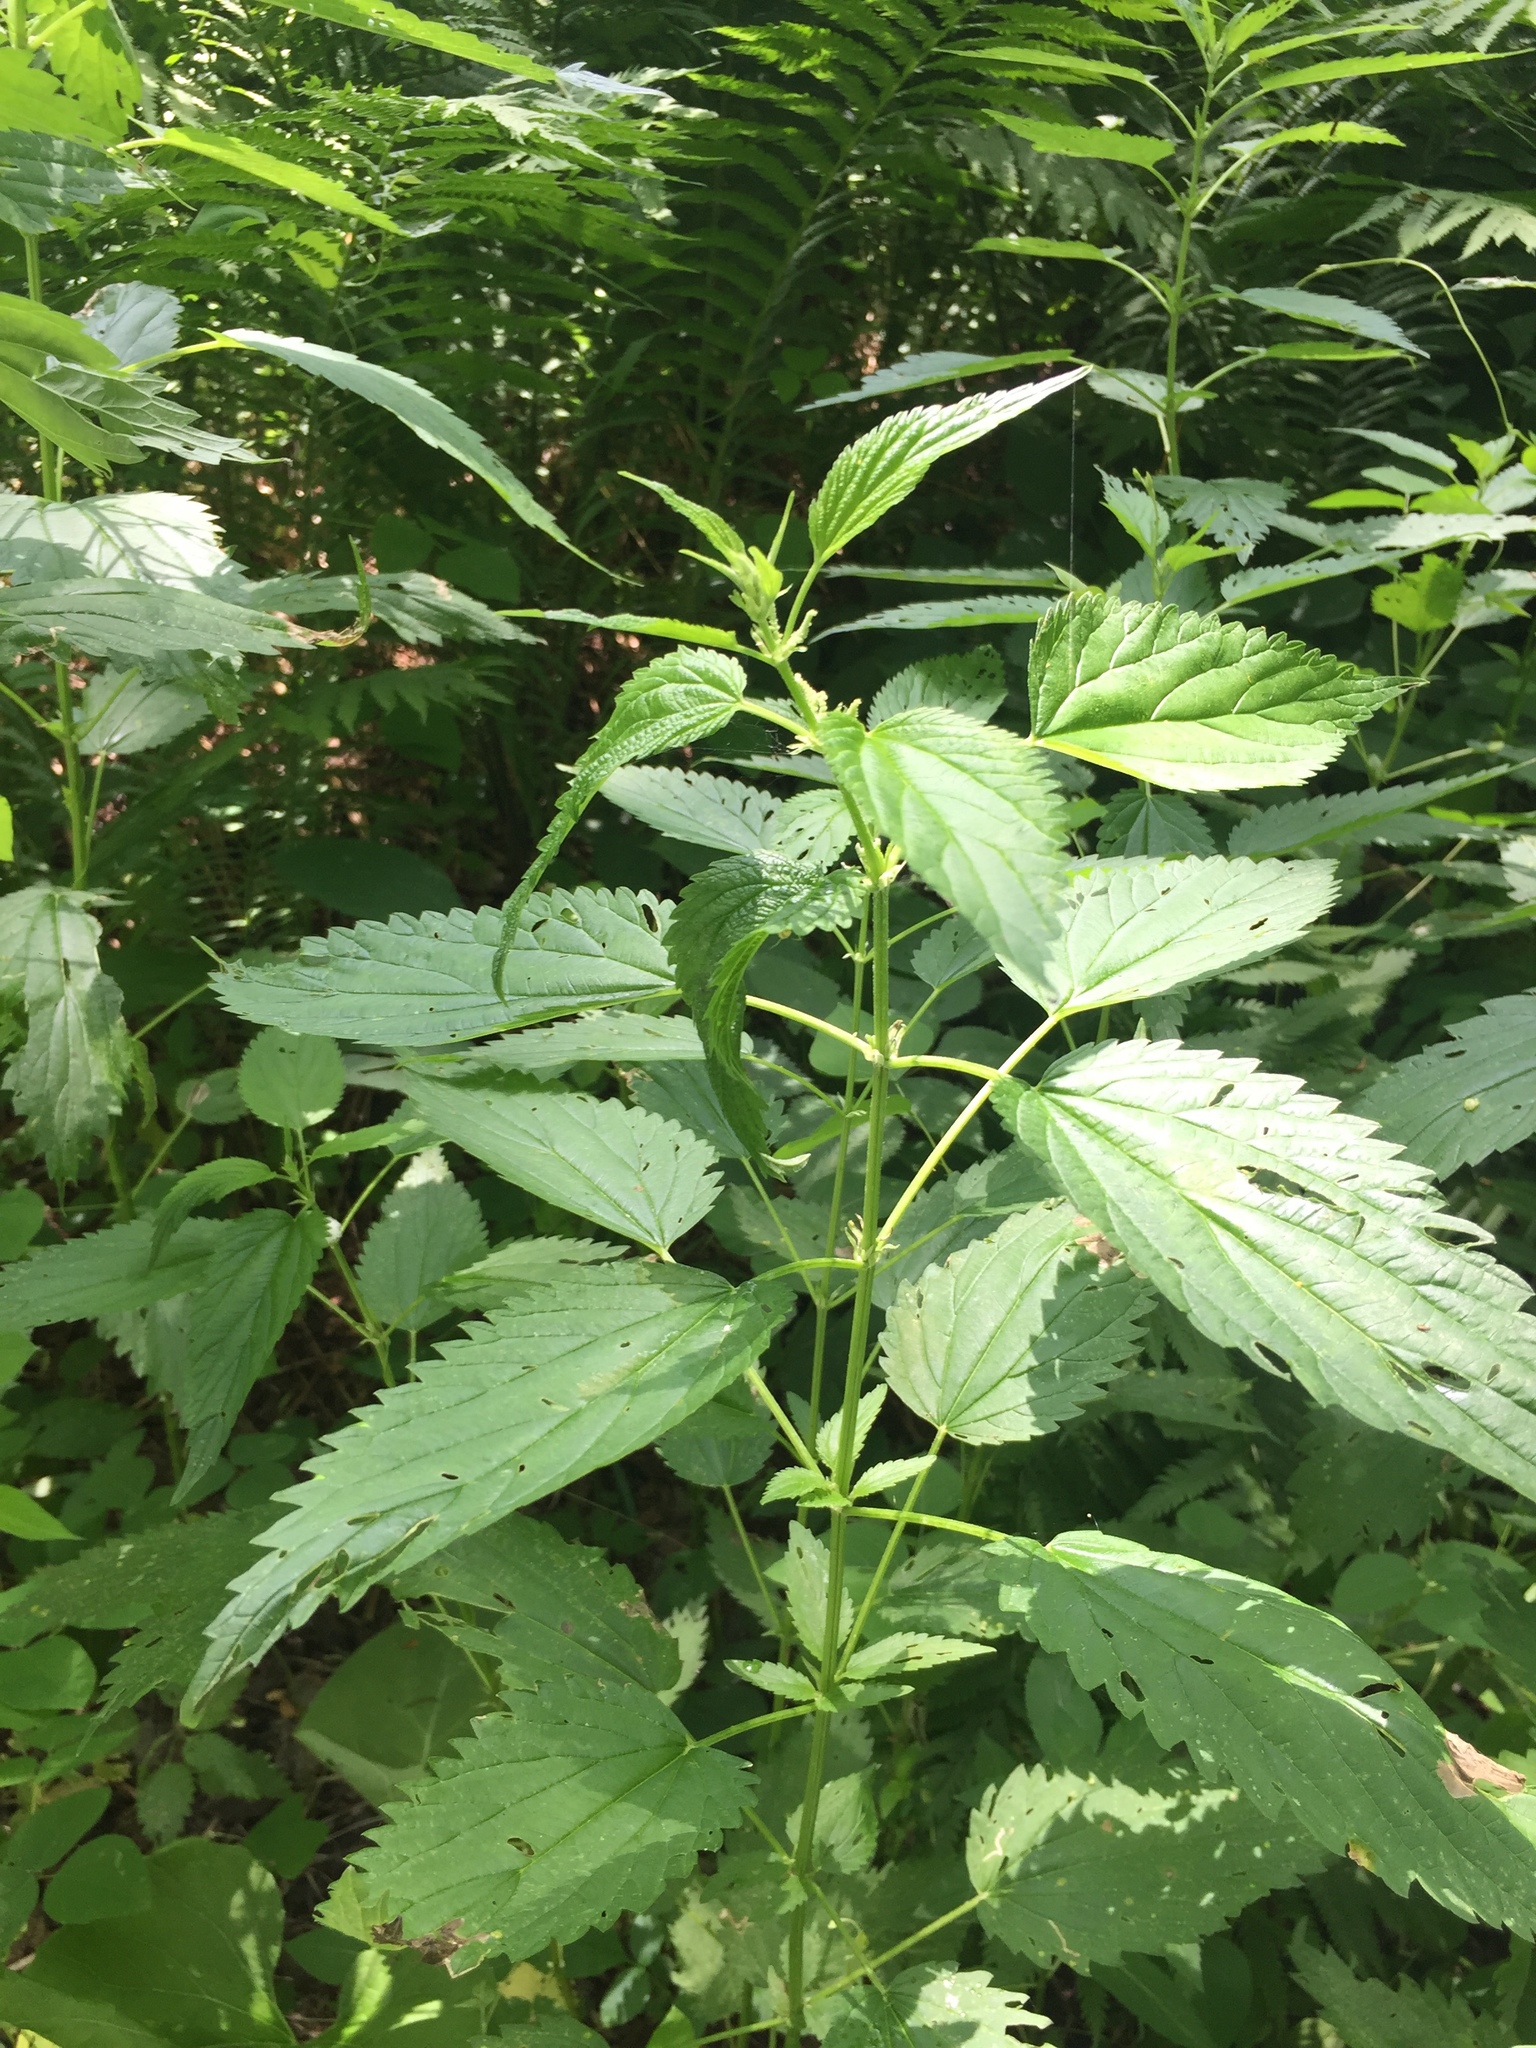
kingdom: Plantae
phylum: Tracheophyta
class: Magnoliopsida
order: Rosales
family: Urticaceae
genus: Urtica
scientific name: Urtica gracilis
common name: Slender stinging nettle
